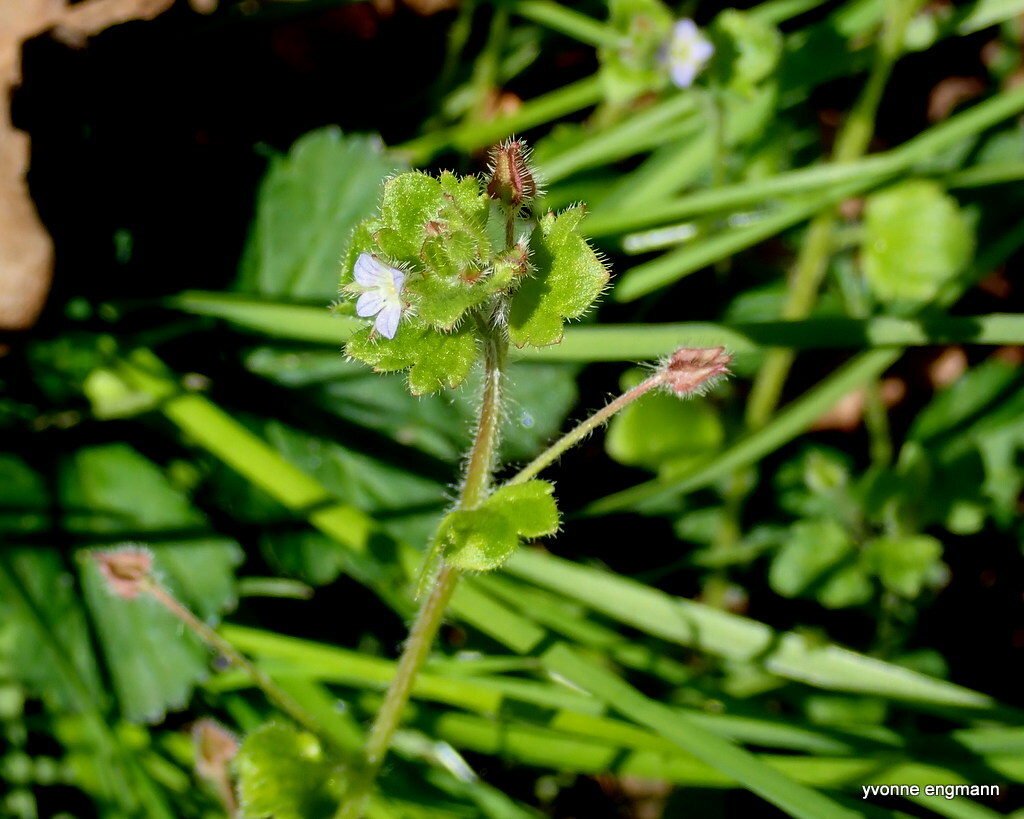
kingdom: Plantae
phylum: Tracheophyta
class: Magnoliopsida
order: Lamiales
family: Plantaginaceae
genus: Veronica
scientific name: Veronica sublobata
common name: False ivy-leaved speedwell
